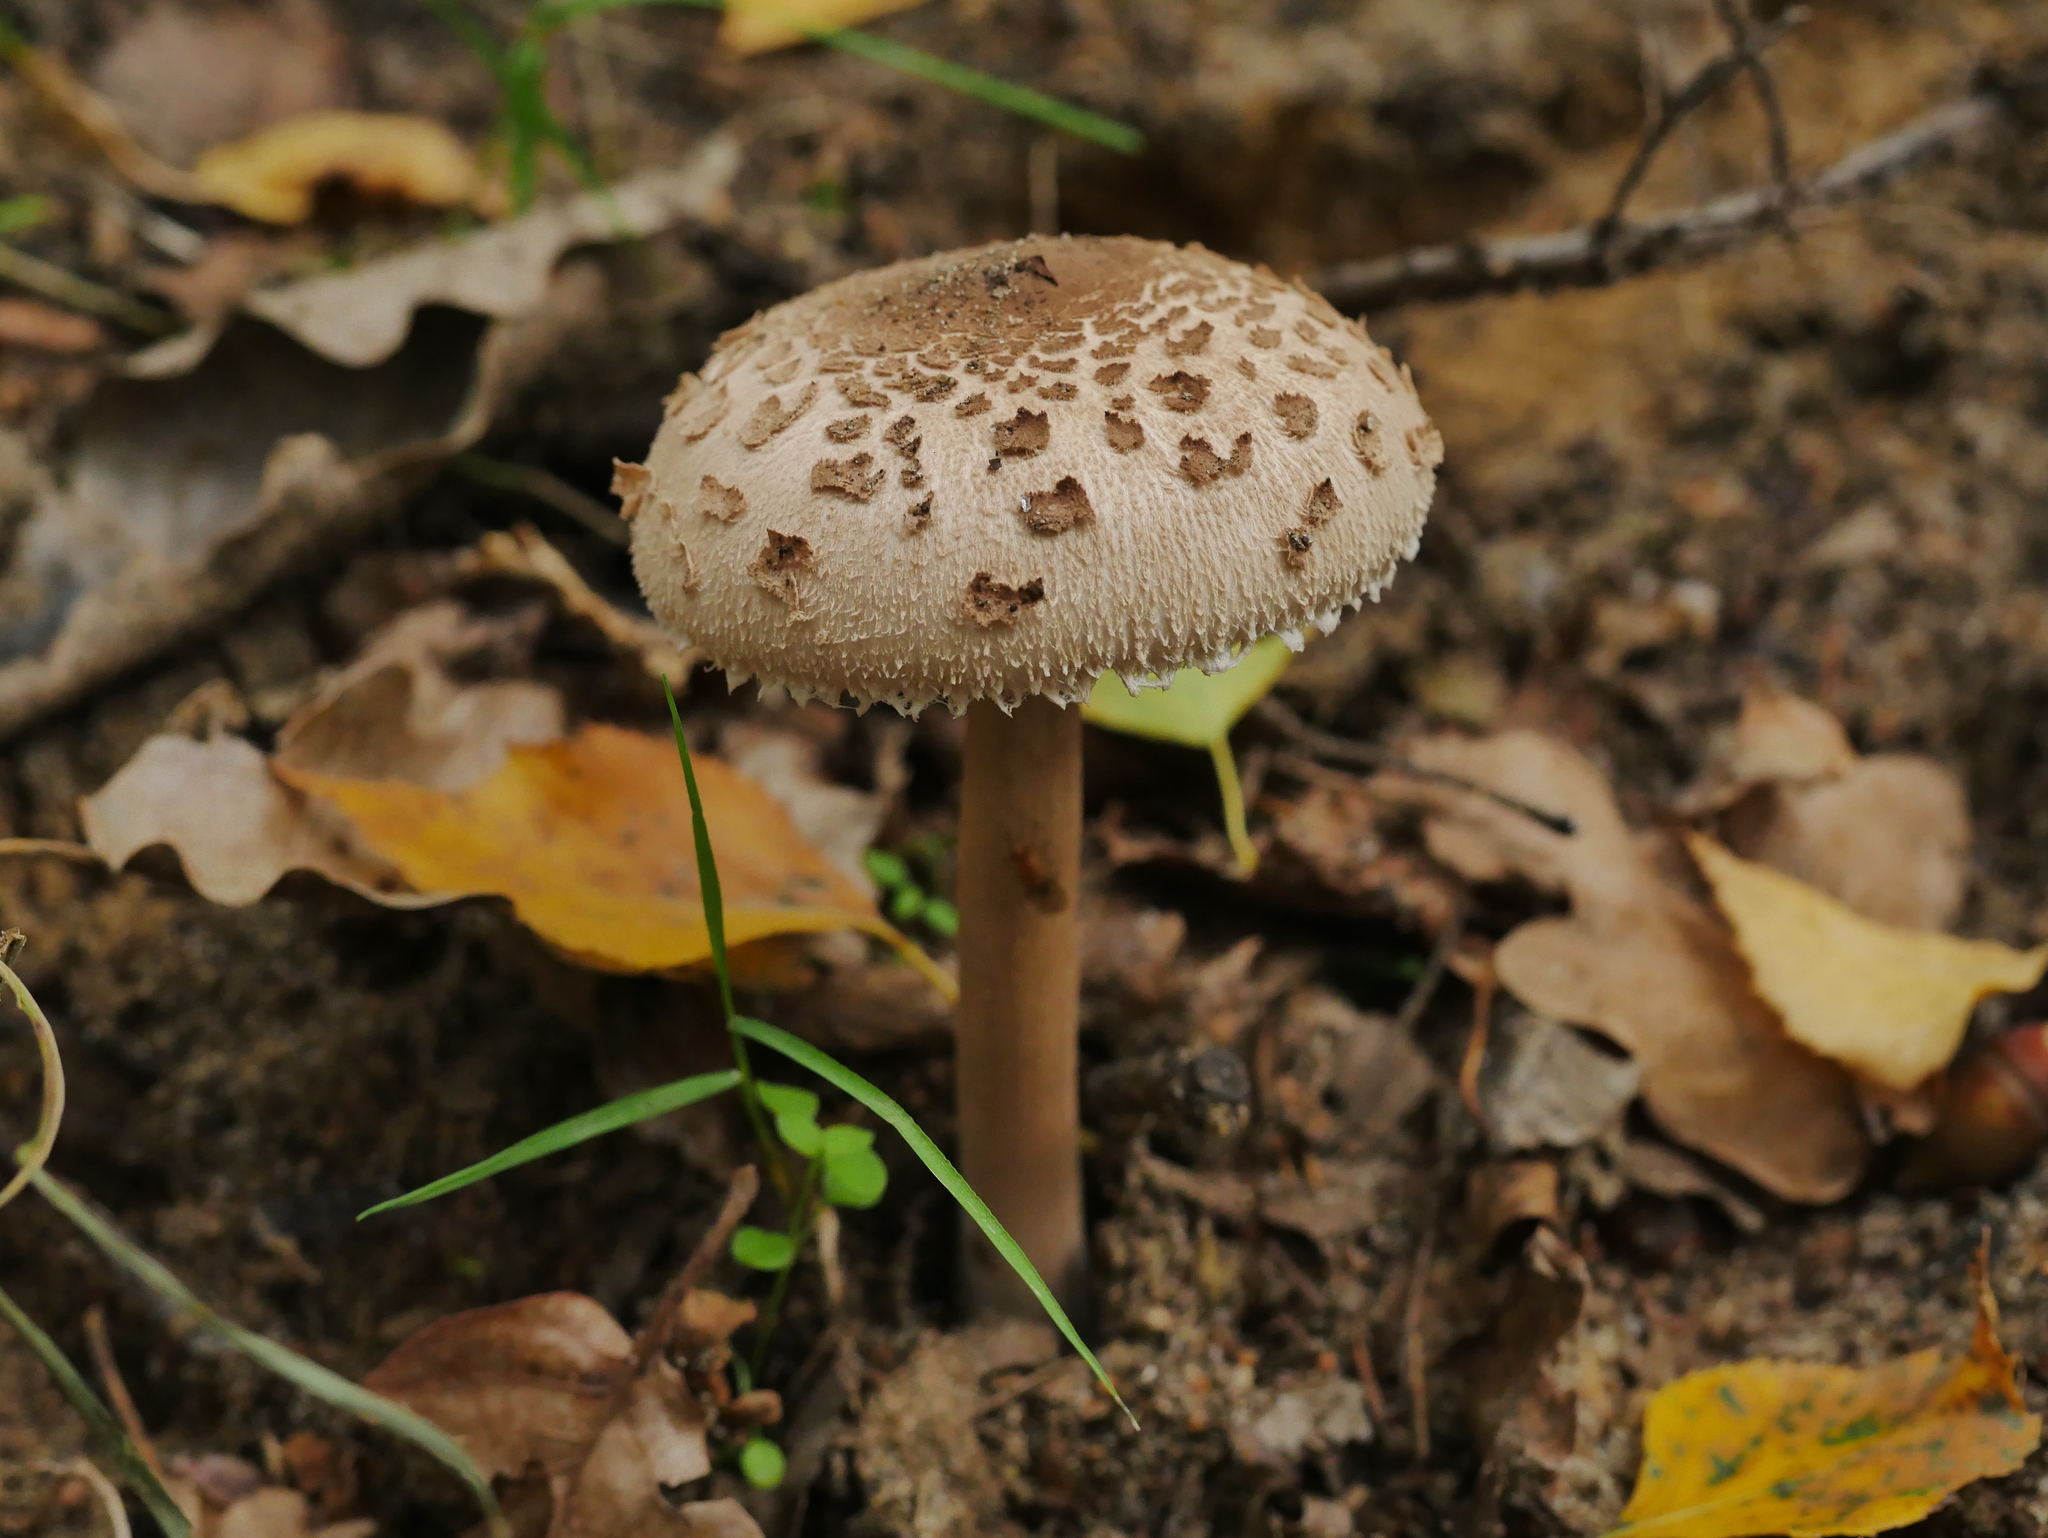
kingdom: Fungi
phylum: Basidiomycota
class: Agaricomycetes
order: Agaricales
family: Agaricaceae
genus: Macrolepiota
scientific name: Macrolepiota procera
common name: Parasol
